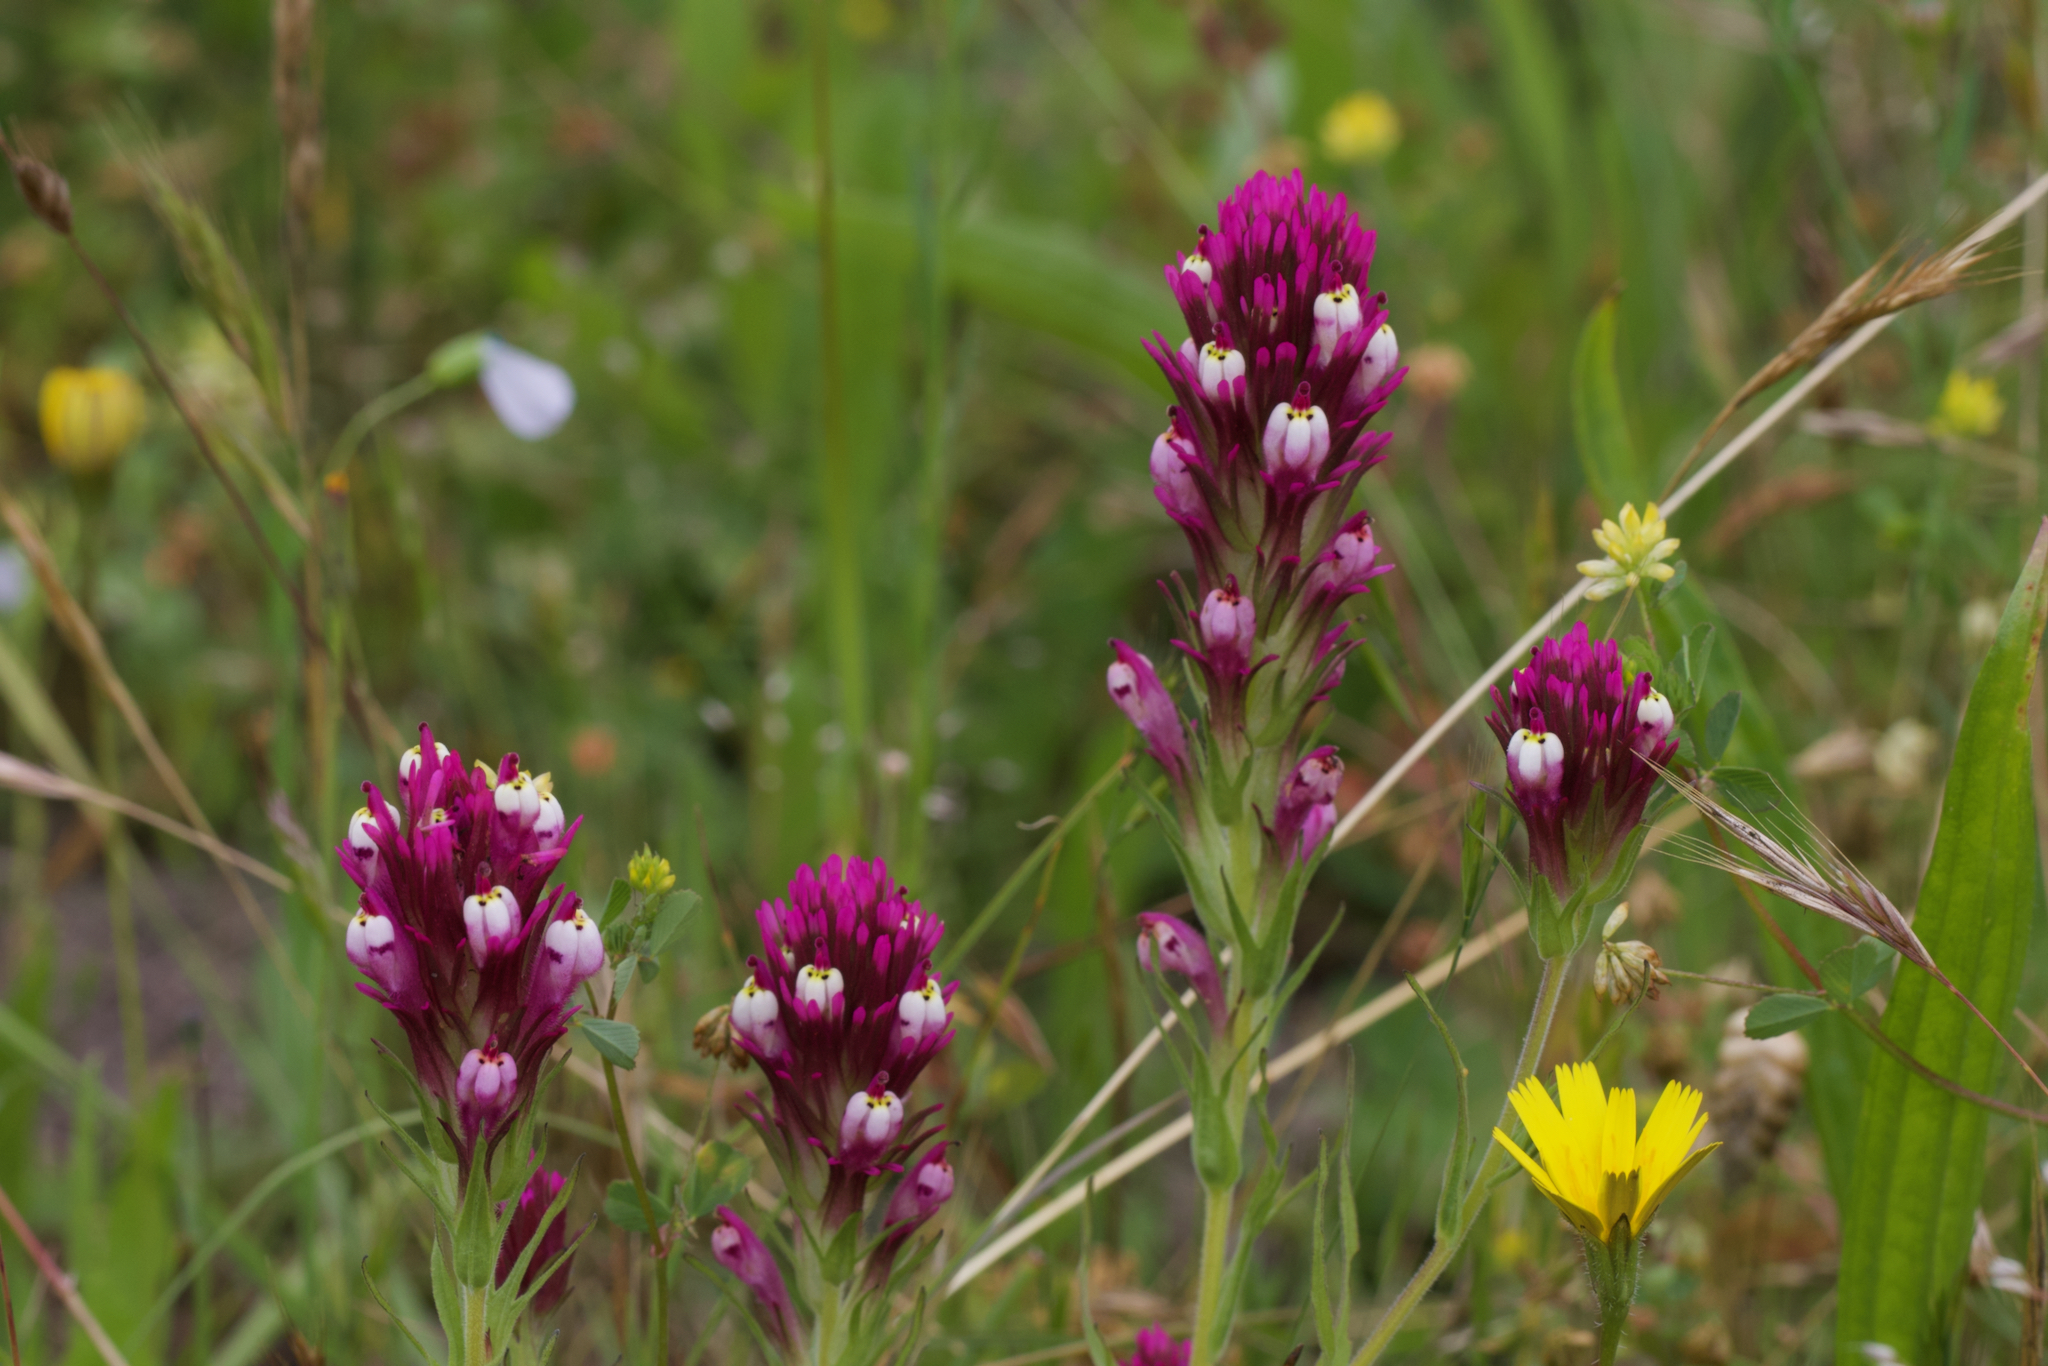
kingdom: Plantae
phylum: Tracheophyta
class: Magnoliopsida
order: Lamiales
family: Orobanchaceae
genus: Castilleja
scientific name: Castilleja densiflora
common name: Dense-flower indian paintbrush
